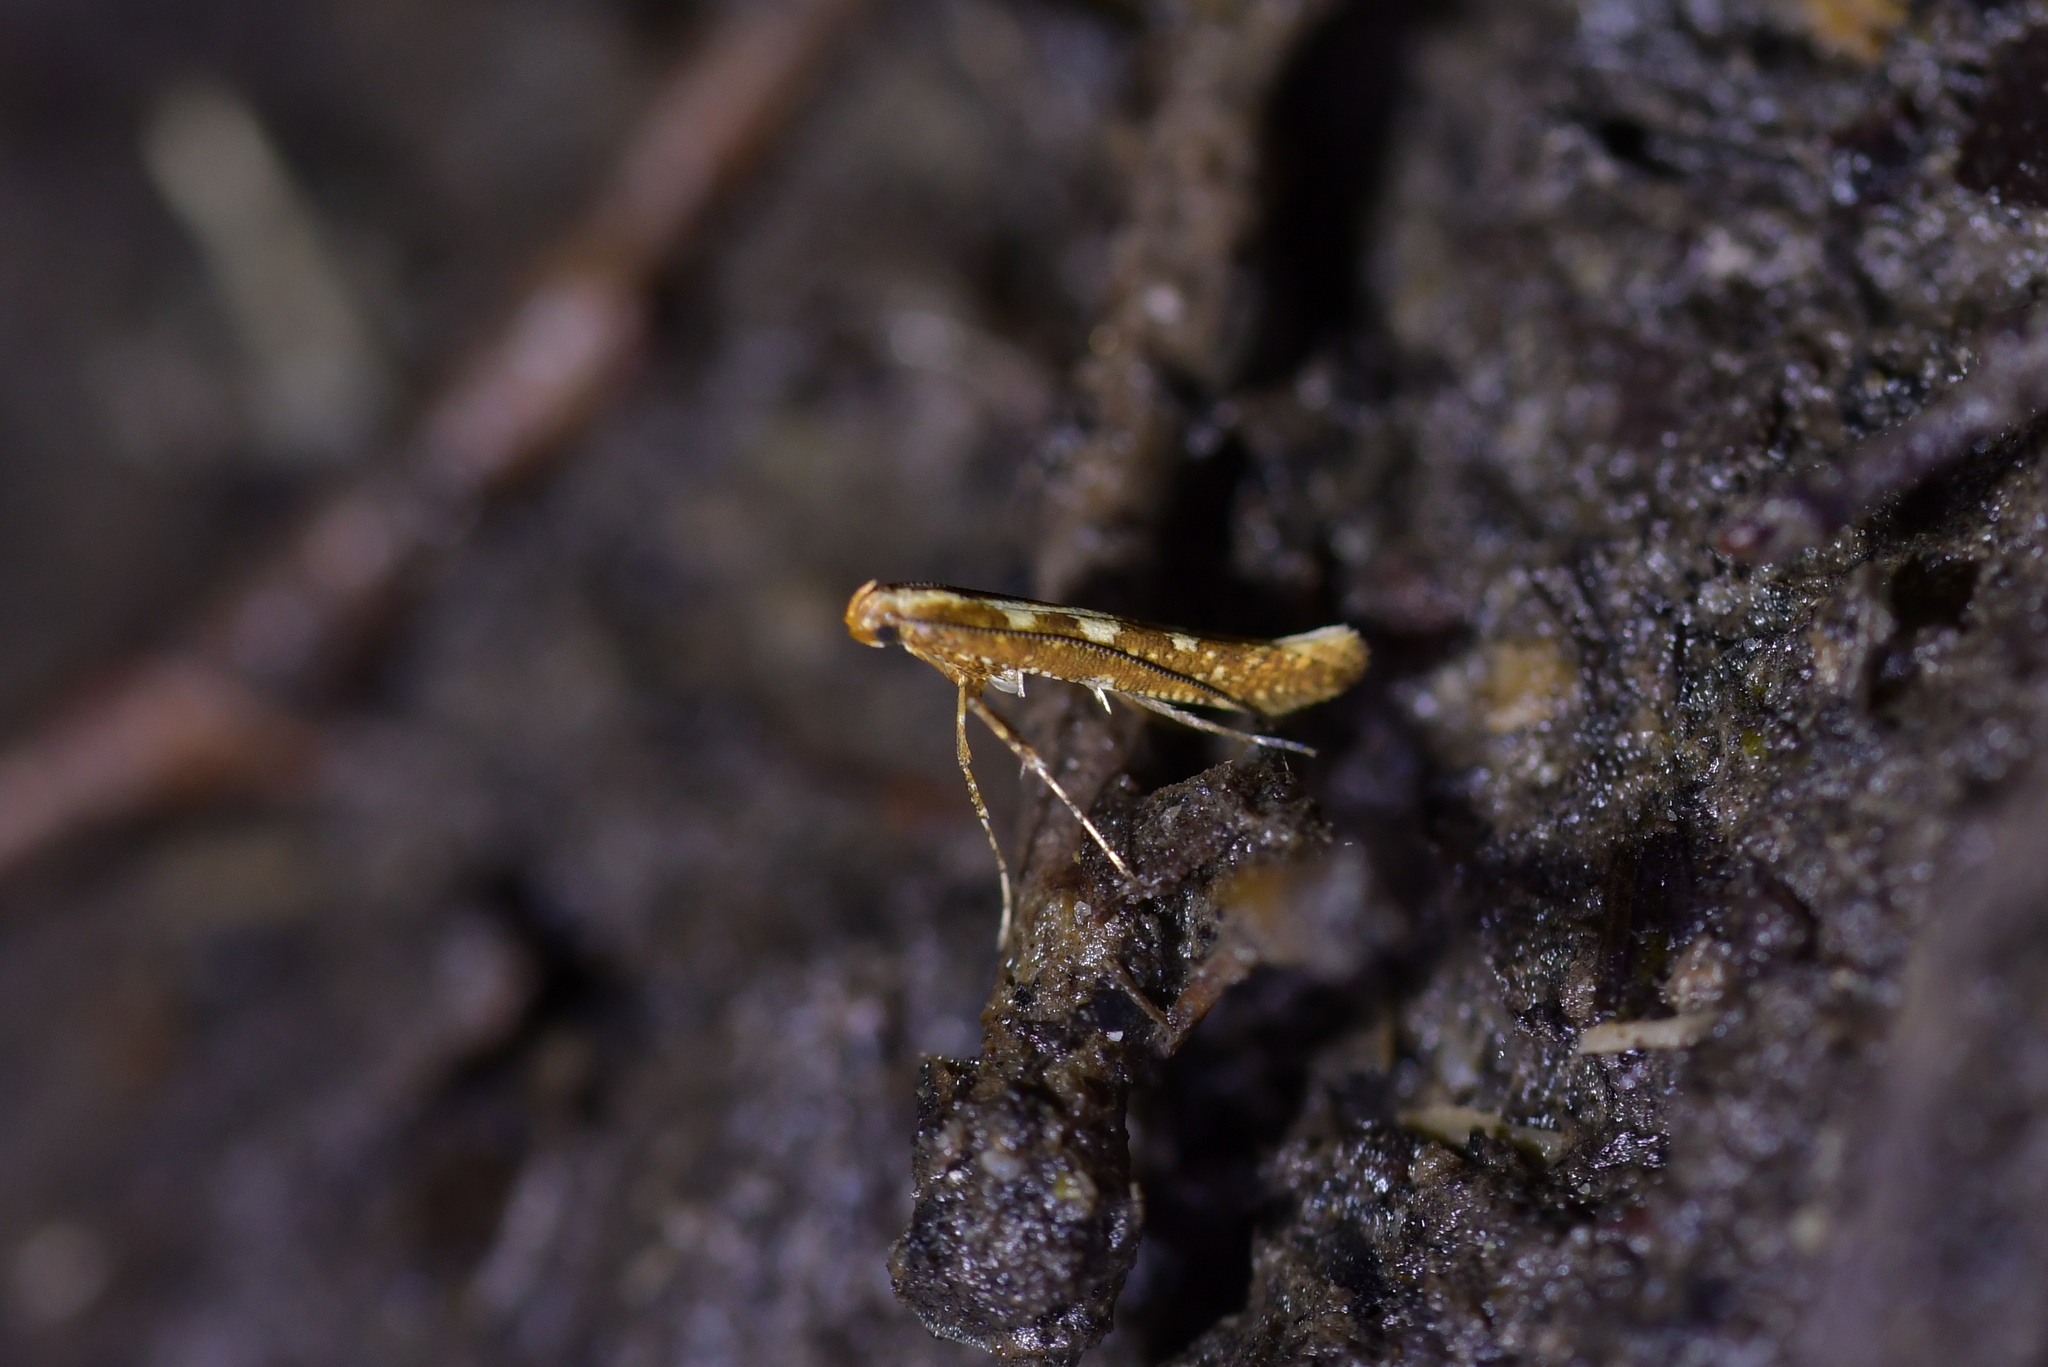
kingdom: Animalia
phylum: Arthropoda
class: Insecta
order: Lepidoptera
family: Gracillariidae
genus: Caloptilia
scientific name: Caloptilia selenitis
